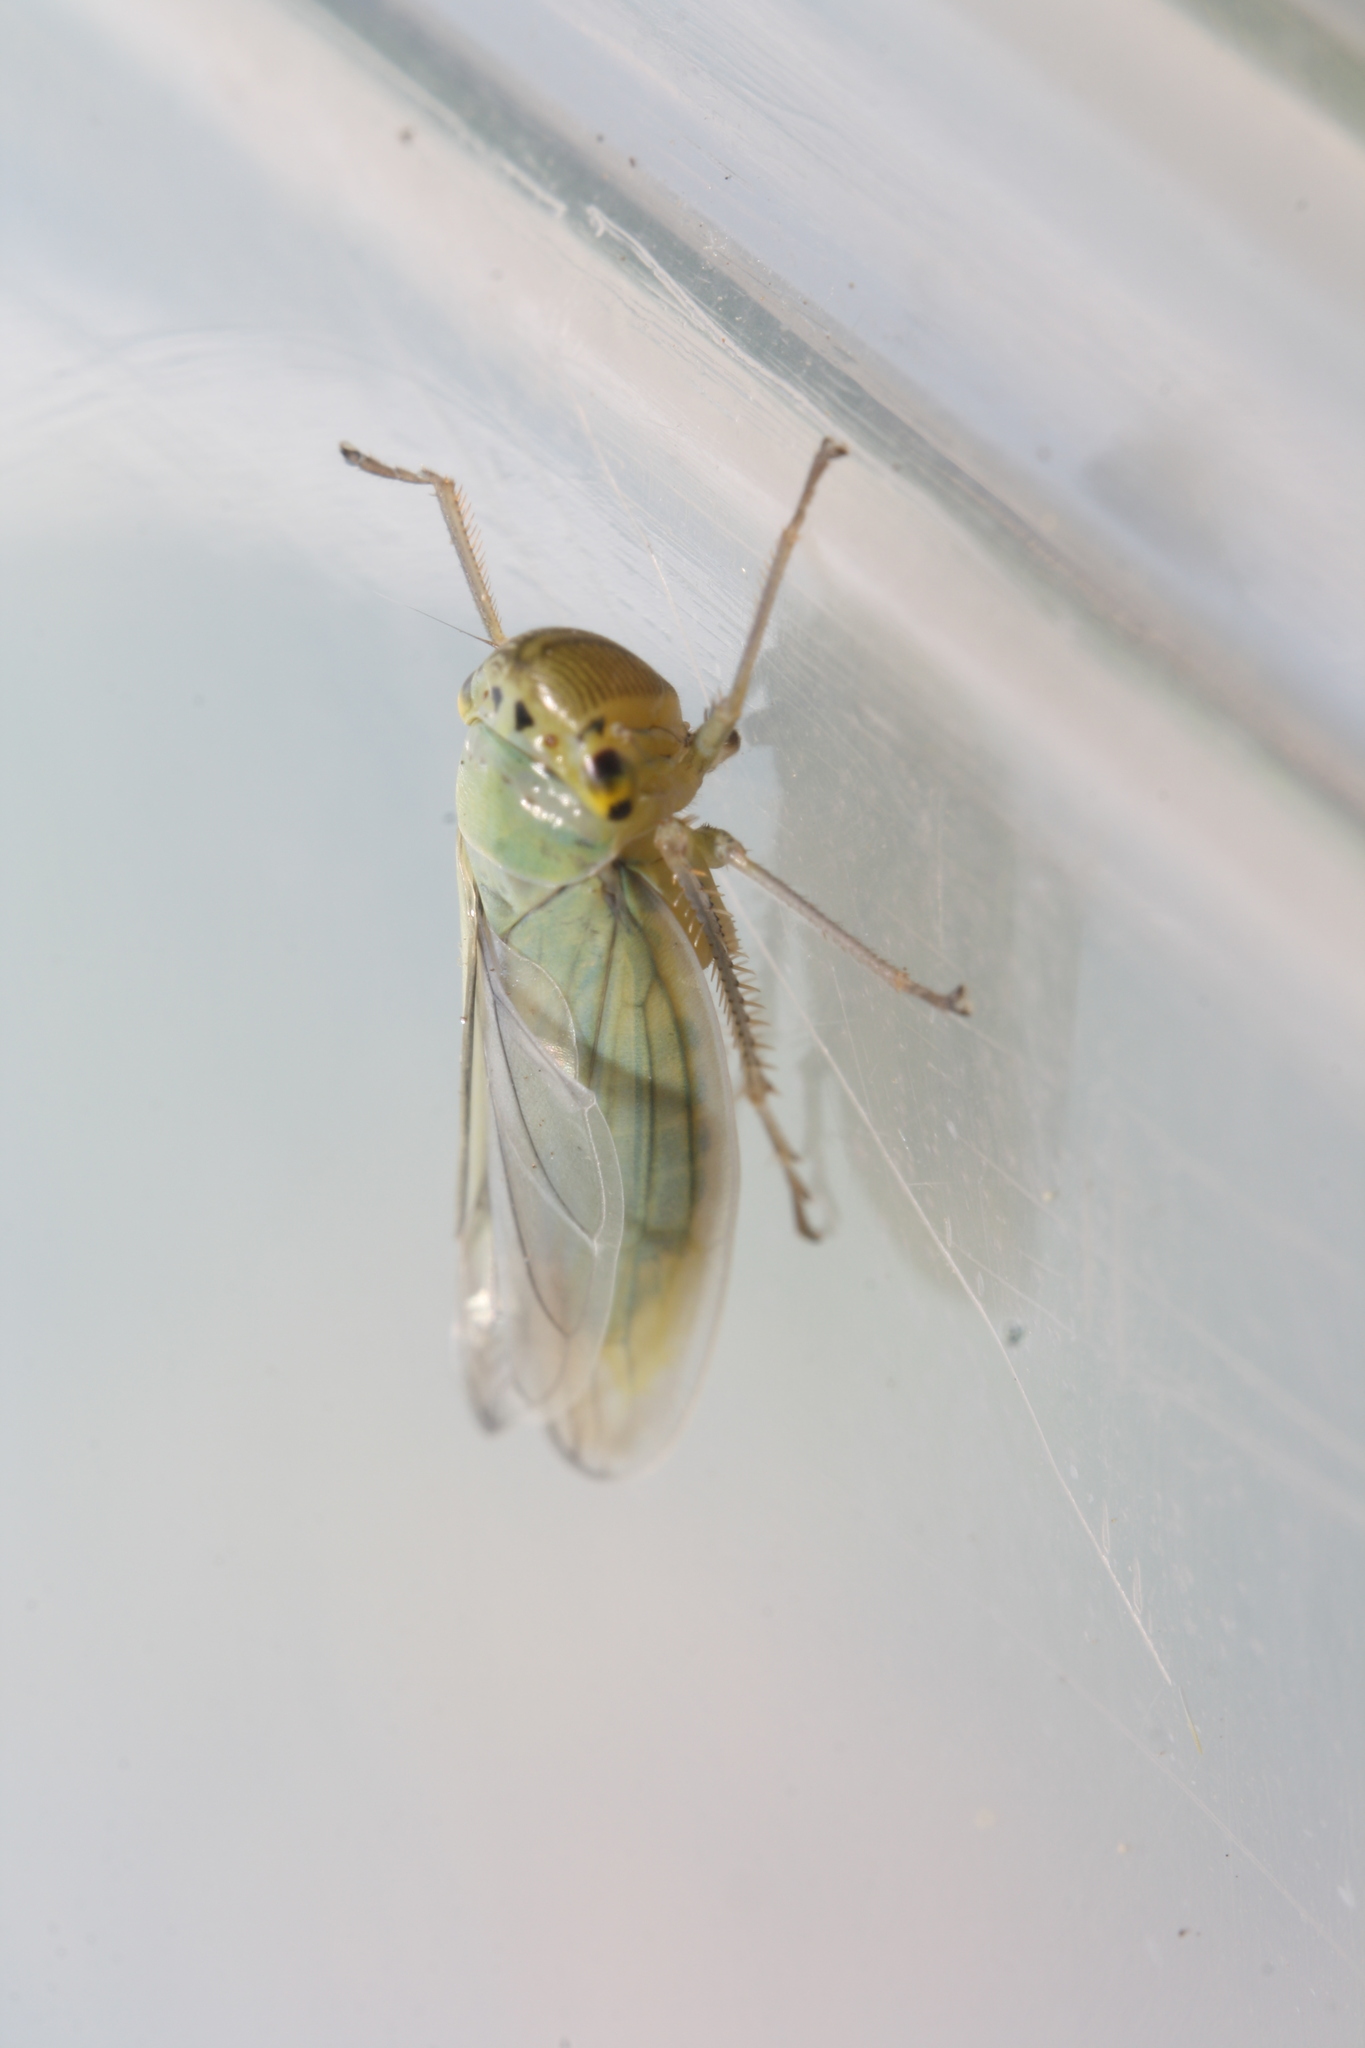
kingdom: Animalia
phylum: Arthropoda
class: Insecta
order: Hemiptera
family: Cicadellidae
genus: Cicadella
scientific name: Cicadella viridis
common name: Leafhopper
